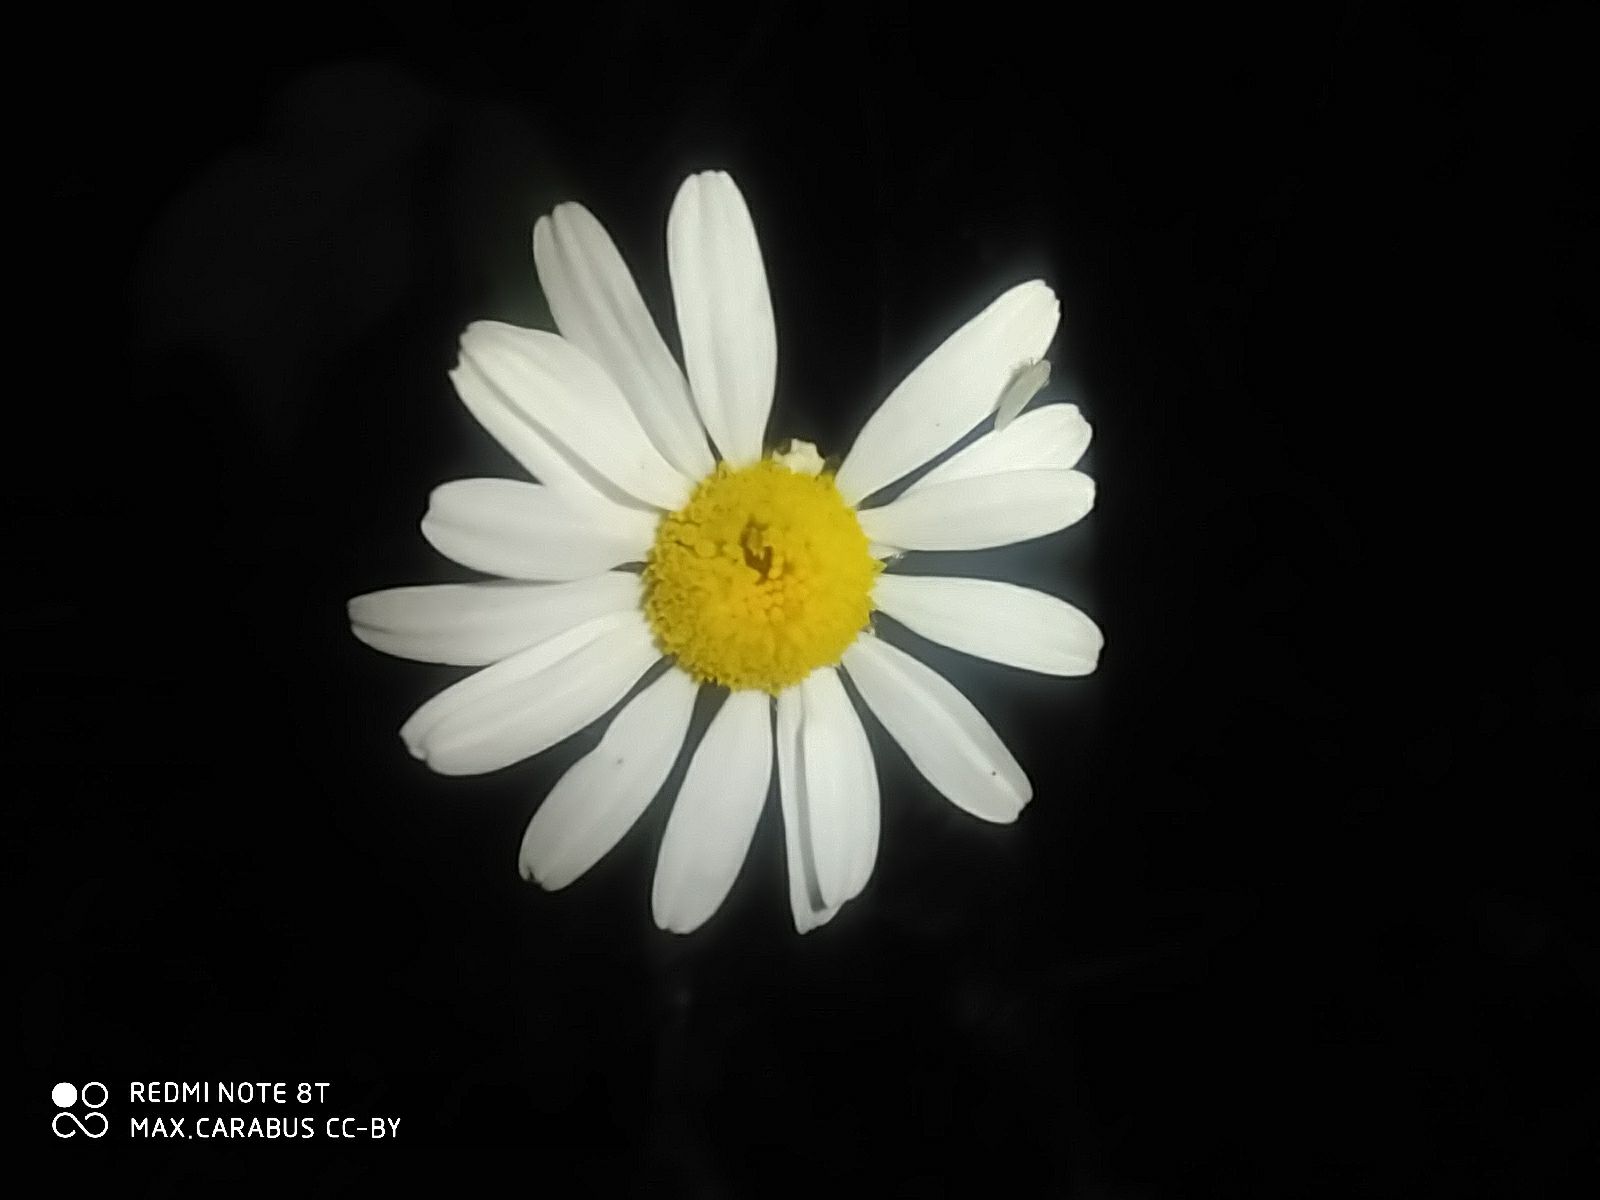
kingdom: Plantae
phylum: Tracheophyta
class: Magnoliopsida
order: Asterales
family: Asteraceae
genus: Leucanthemum
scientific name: Leucanthemum vulgare
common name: Oxeye daisy
